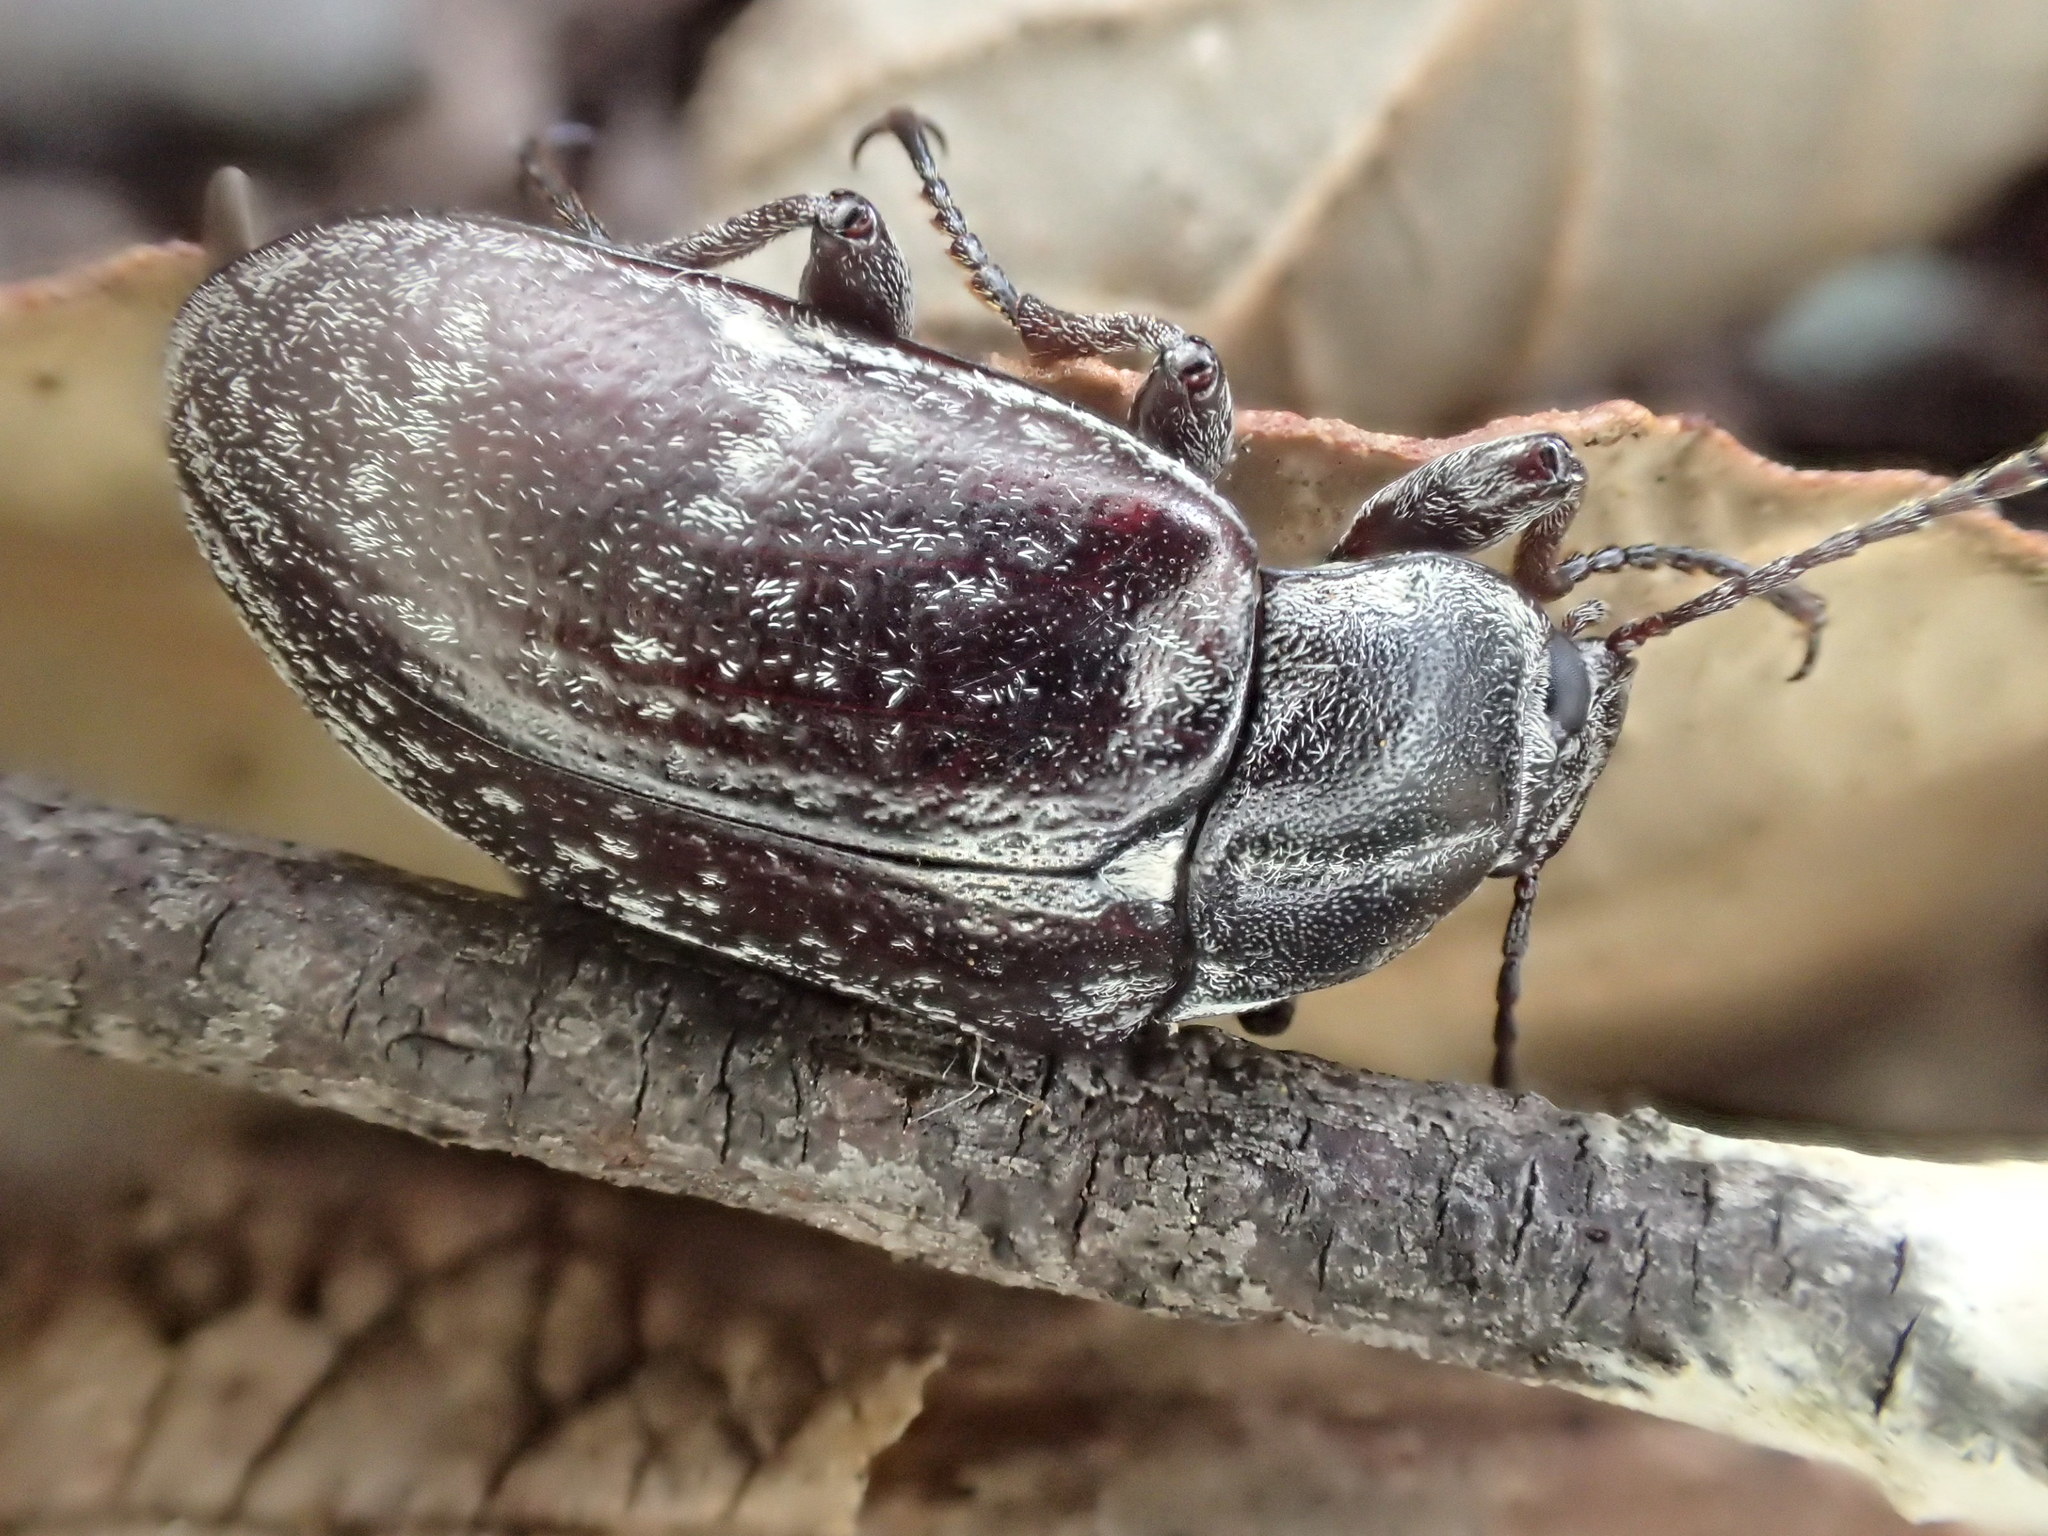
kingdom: Animalia
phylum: Arthropoda
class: Insecta
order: Coleoptera
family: Tenebrionidae
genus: Pachycoelia
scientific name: Pachycoelia
